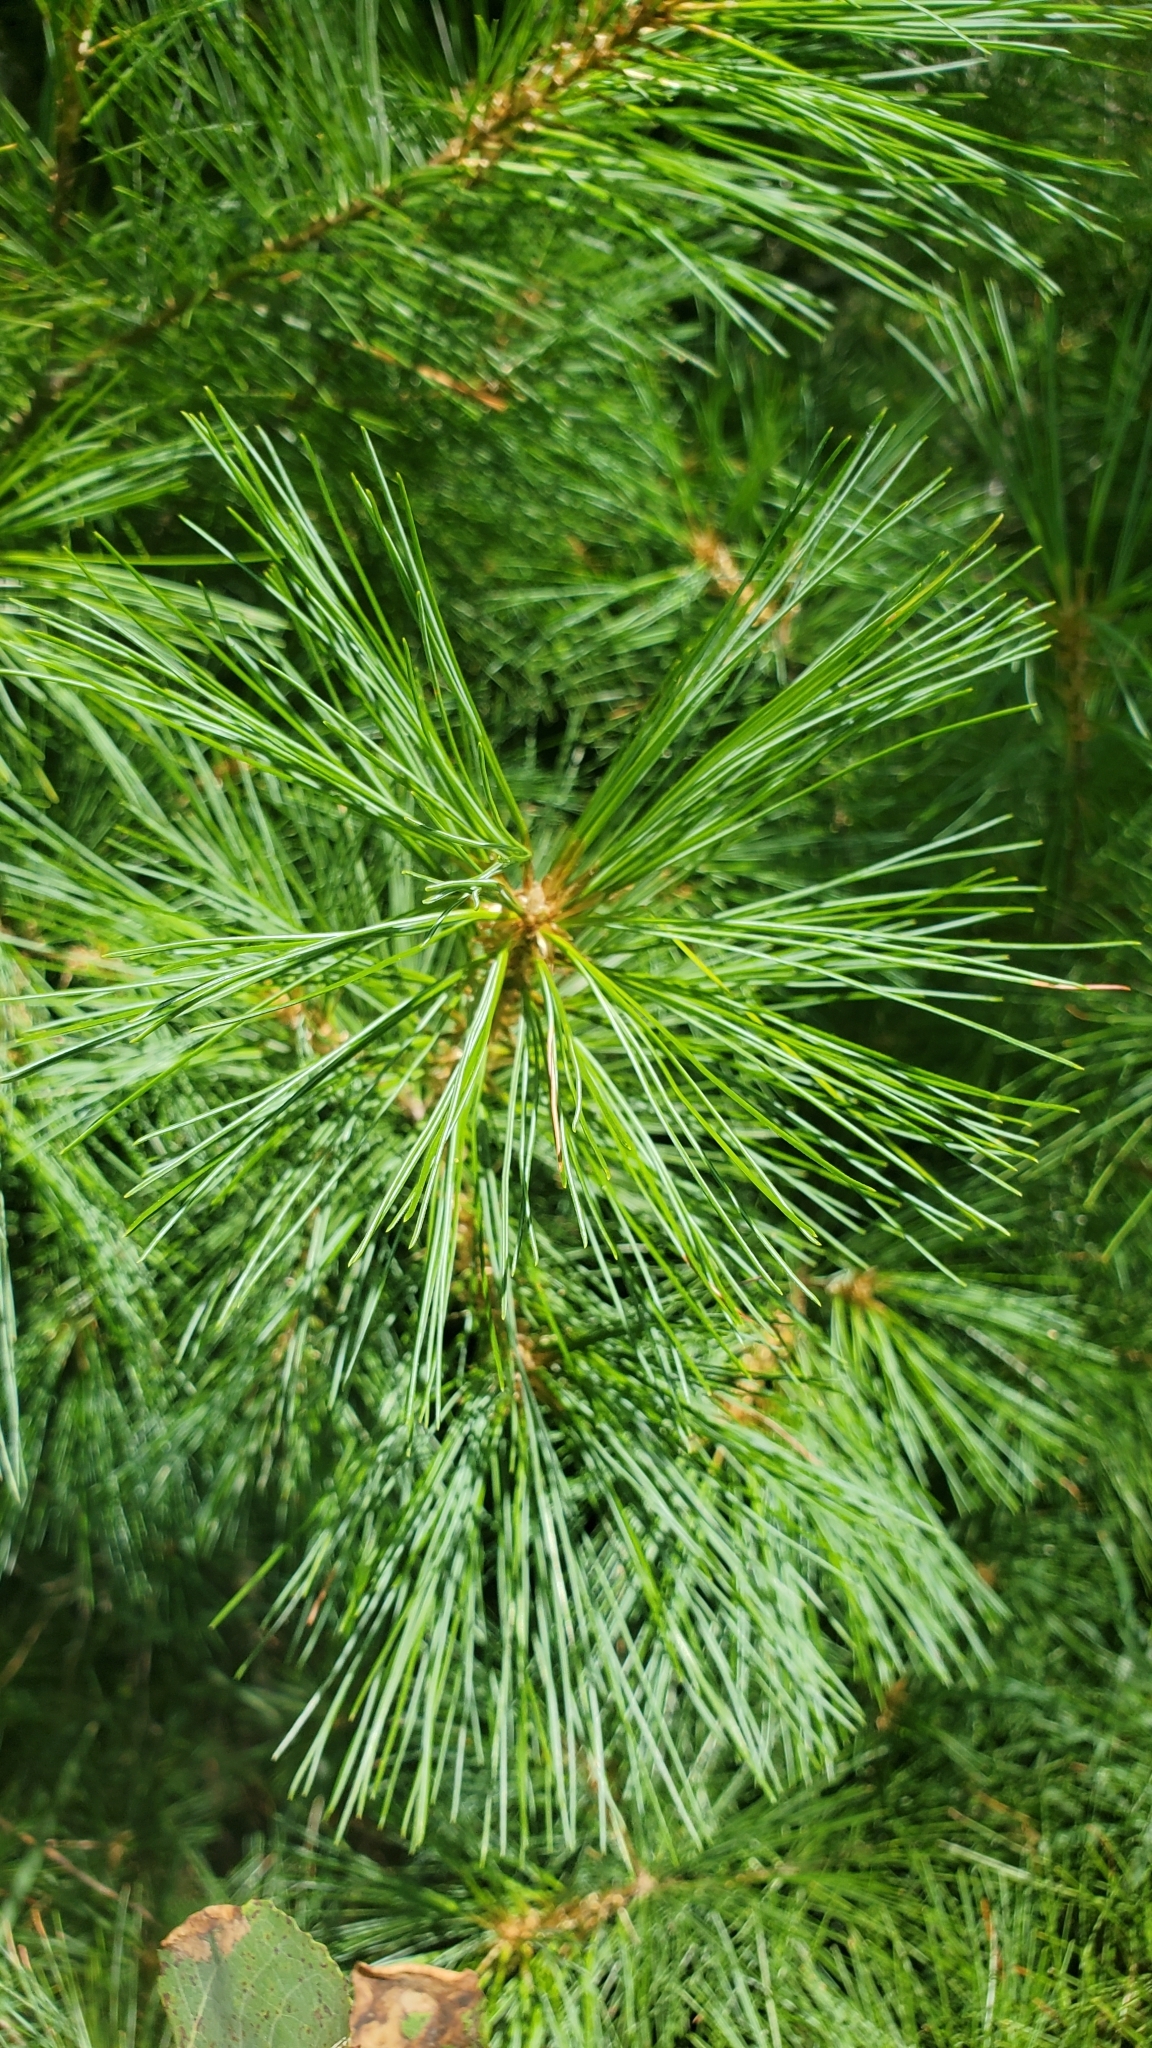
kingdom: Plantae
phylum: Tracheophyta
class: Pinopsida
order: Pinales
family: Pinaceae
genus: Pinus
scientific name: Pinus strobus
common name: Weymouth pine
